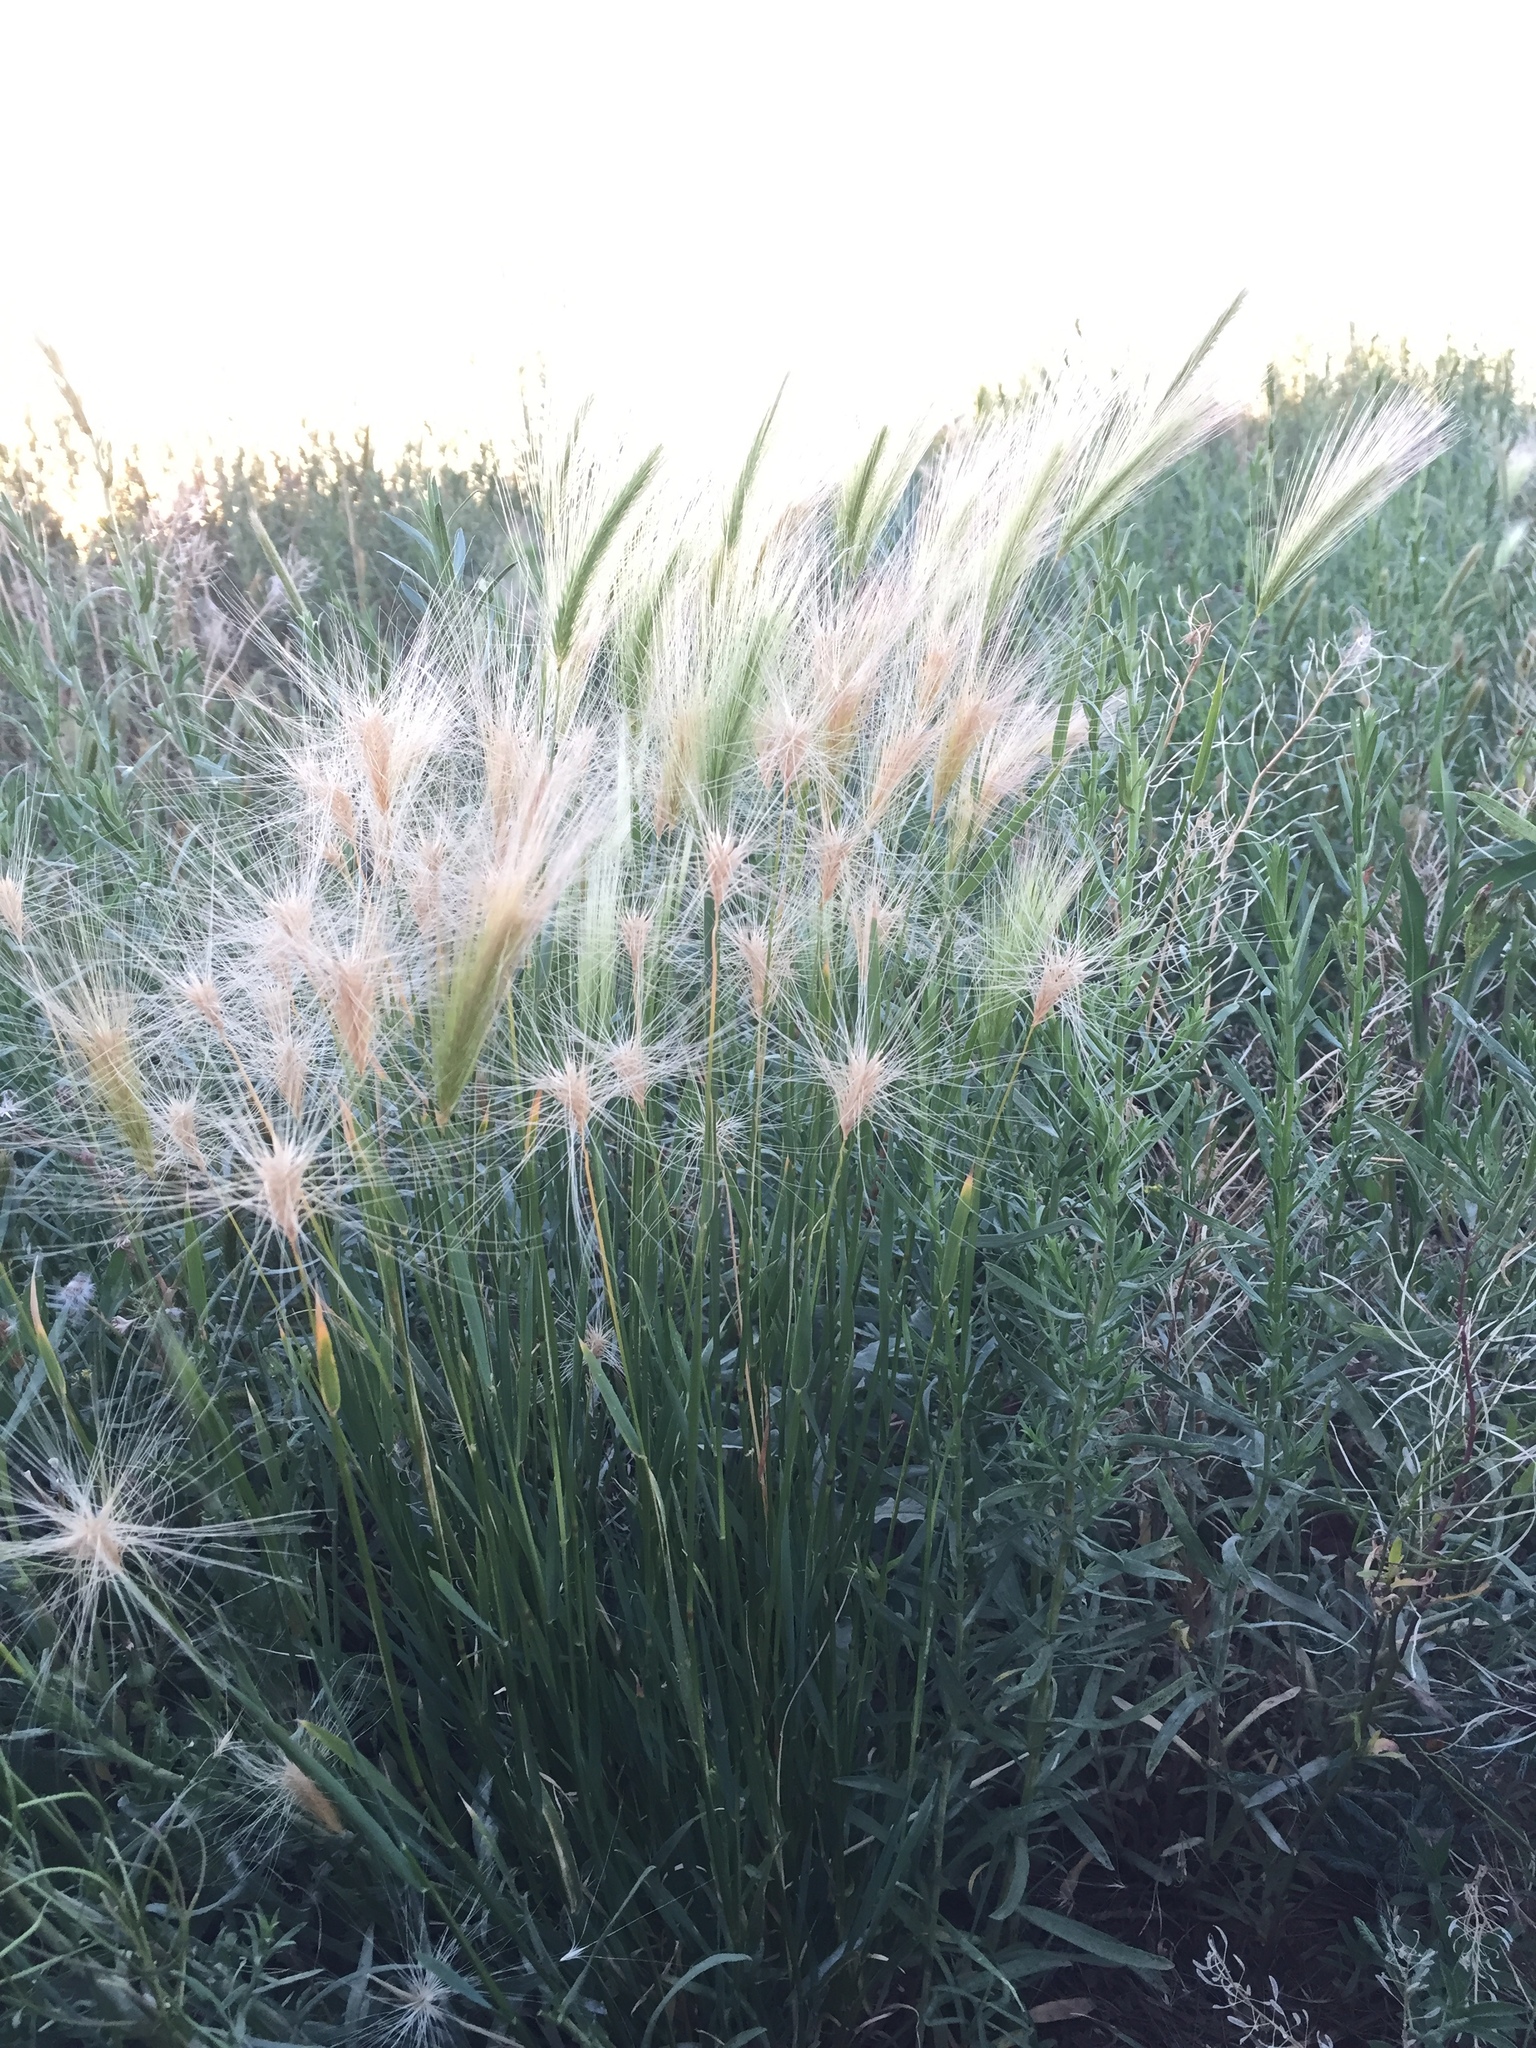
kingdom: Plantae
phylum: Tracheophyta
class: Liliopsida
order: Poales
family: Poaceae
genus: Hordeum
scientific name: Hordeum jubatum
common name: Foxtail barley
